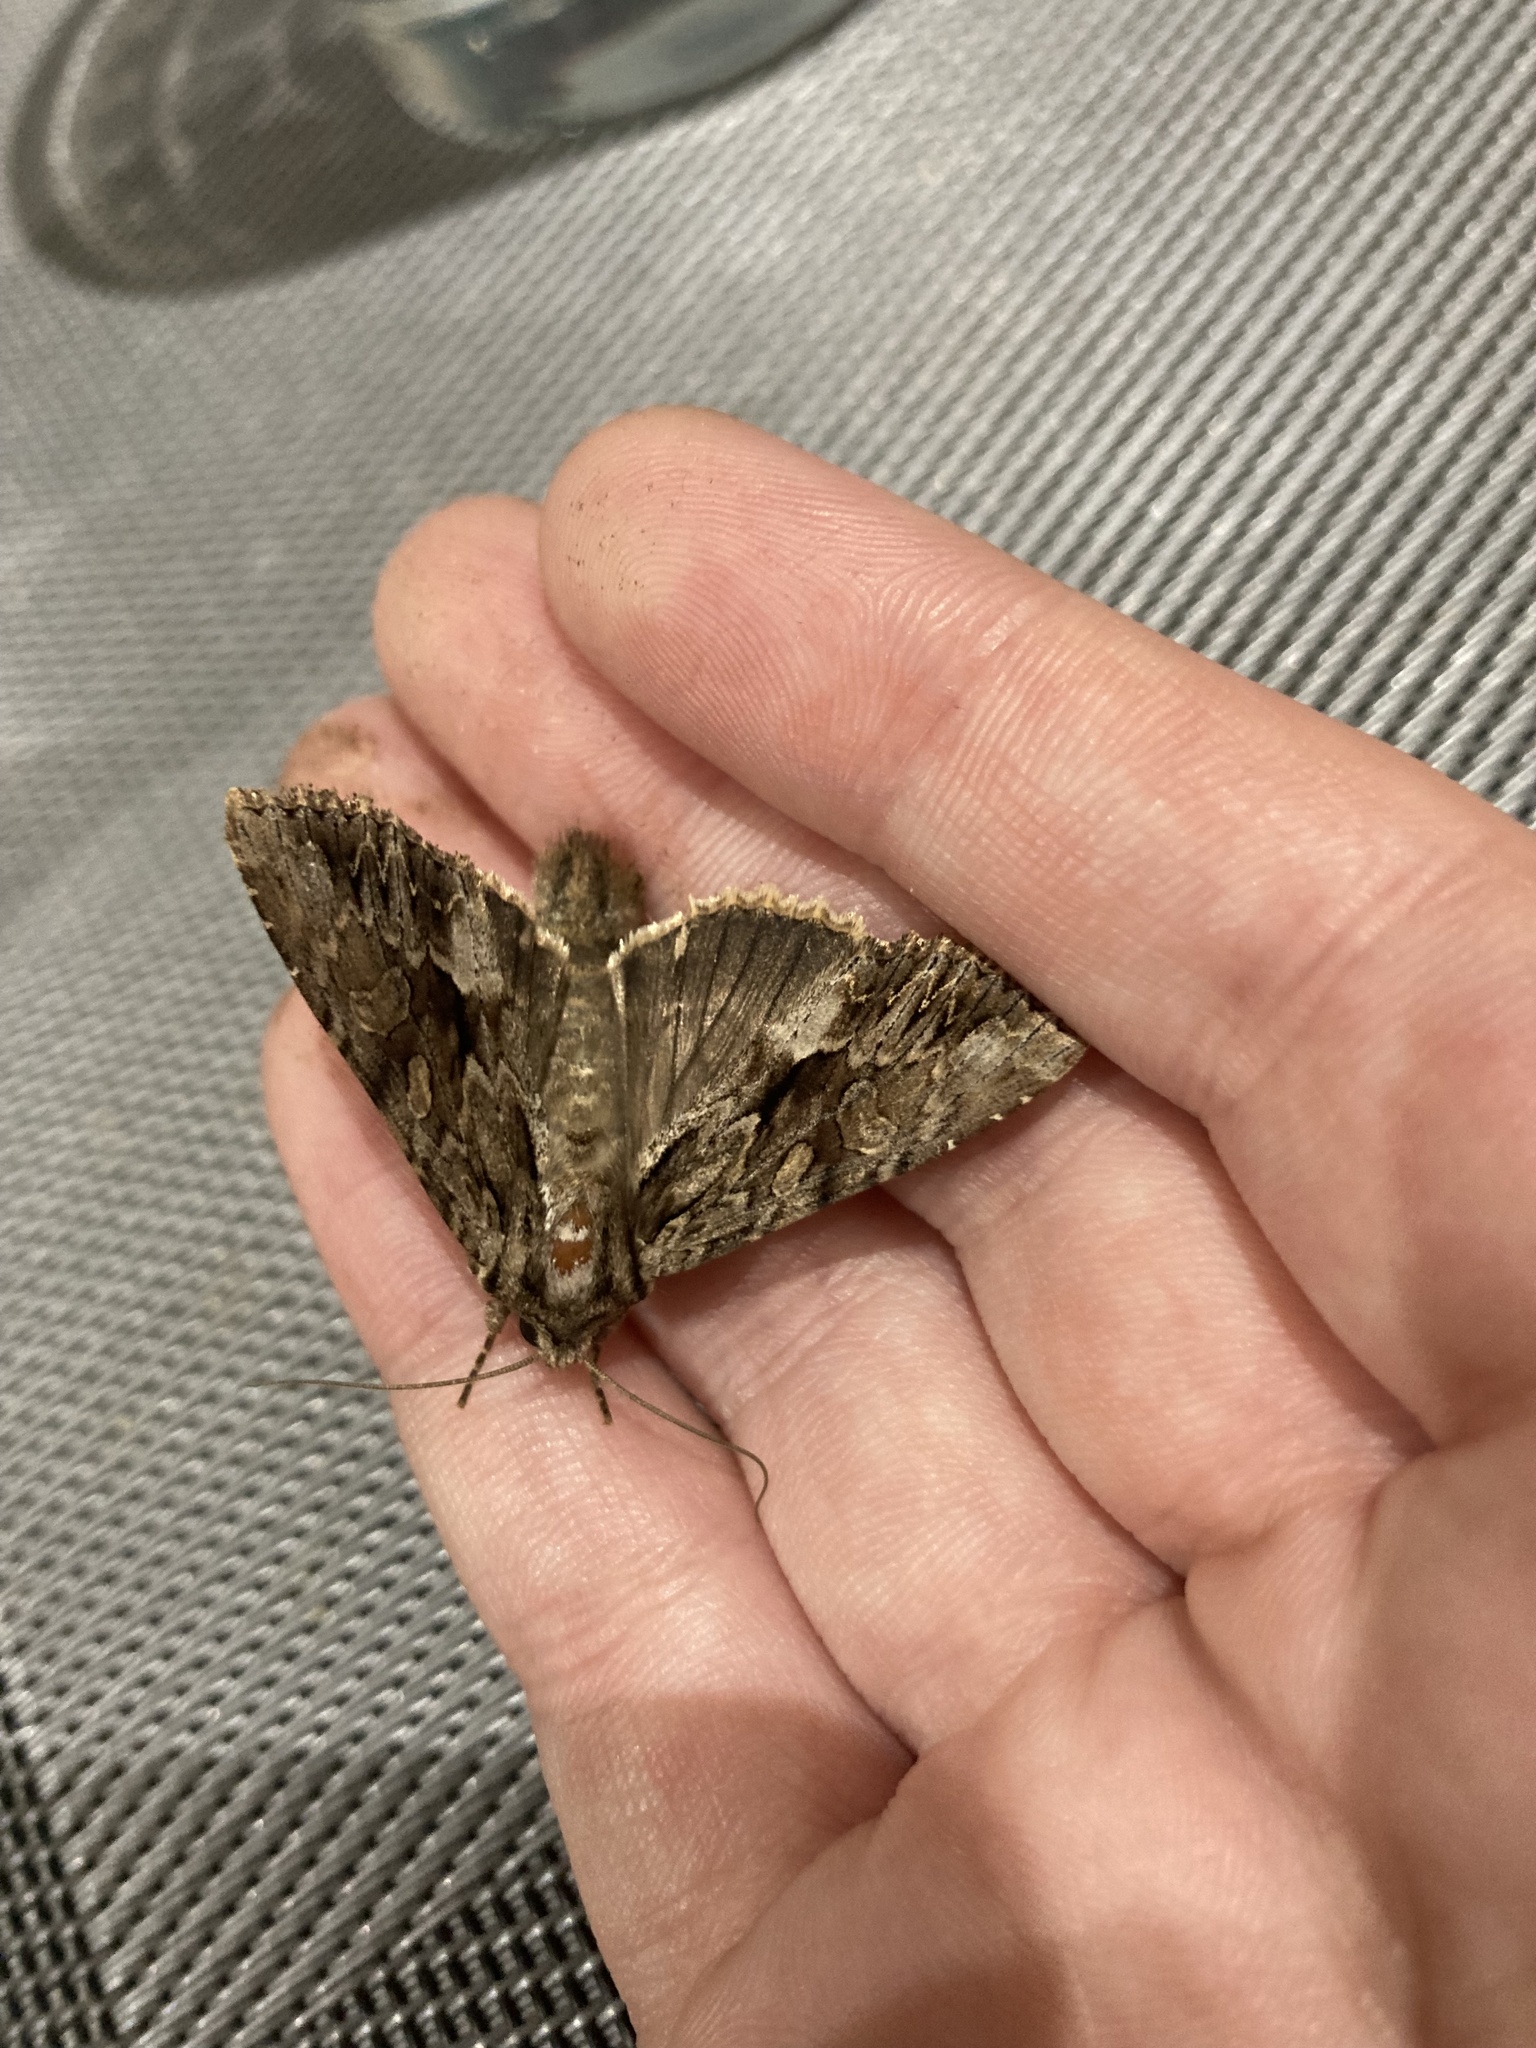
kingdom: Animalia
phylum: Arthropoda
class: Insecta
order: Lepidoptera
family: Noctuidae
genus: Apamea
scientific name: Apamea monoglypha
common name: Dark arches
